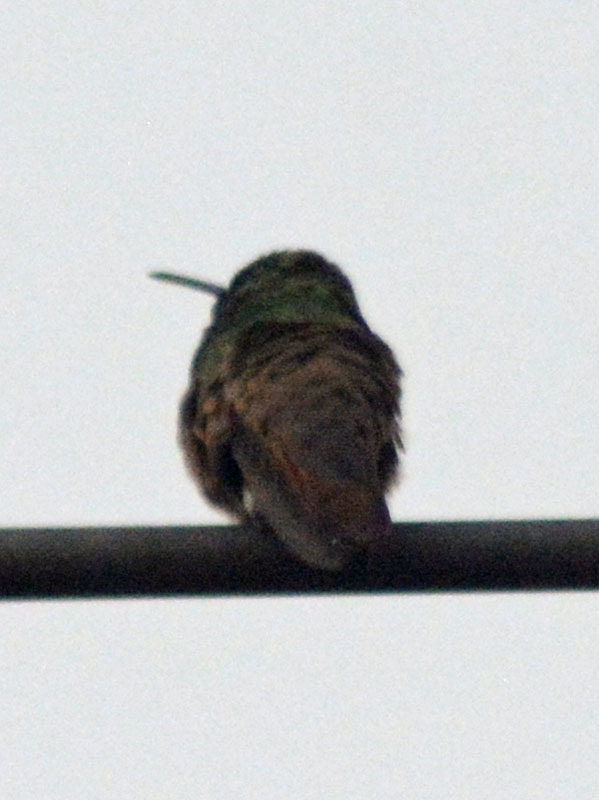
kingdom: Animalia
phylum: Chordata
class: Aves
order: Apodiformes
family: Trochilidae
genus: Saucerottia
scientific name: Saucerottia beryllina
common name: Berylline hummingbird
